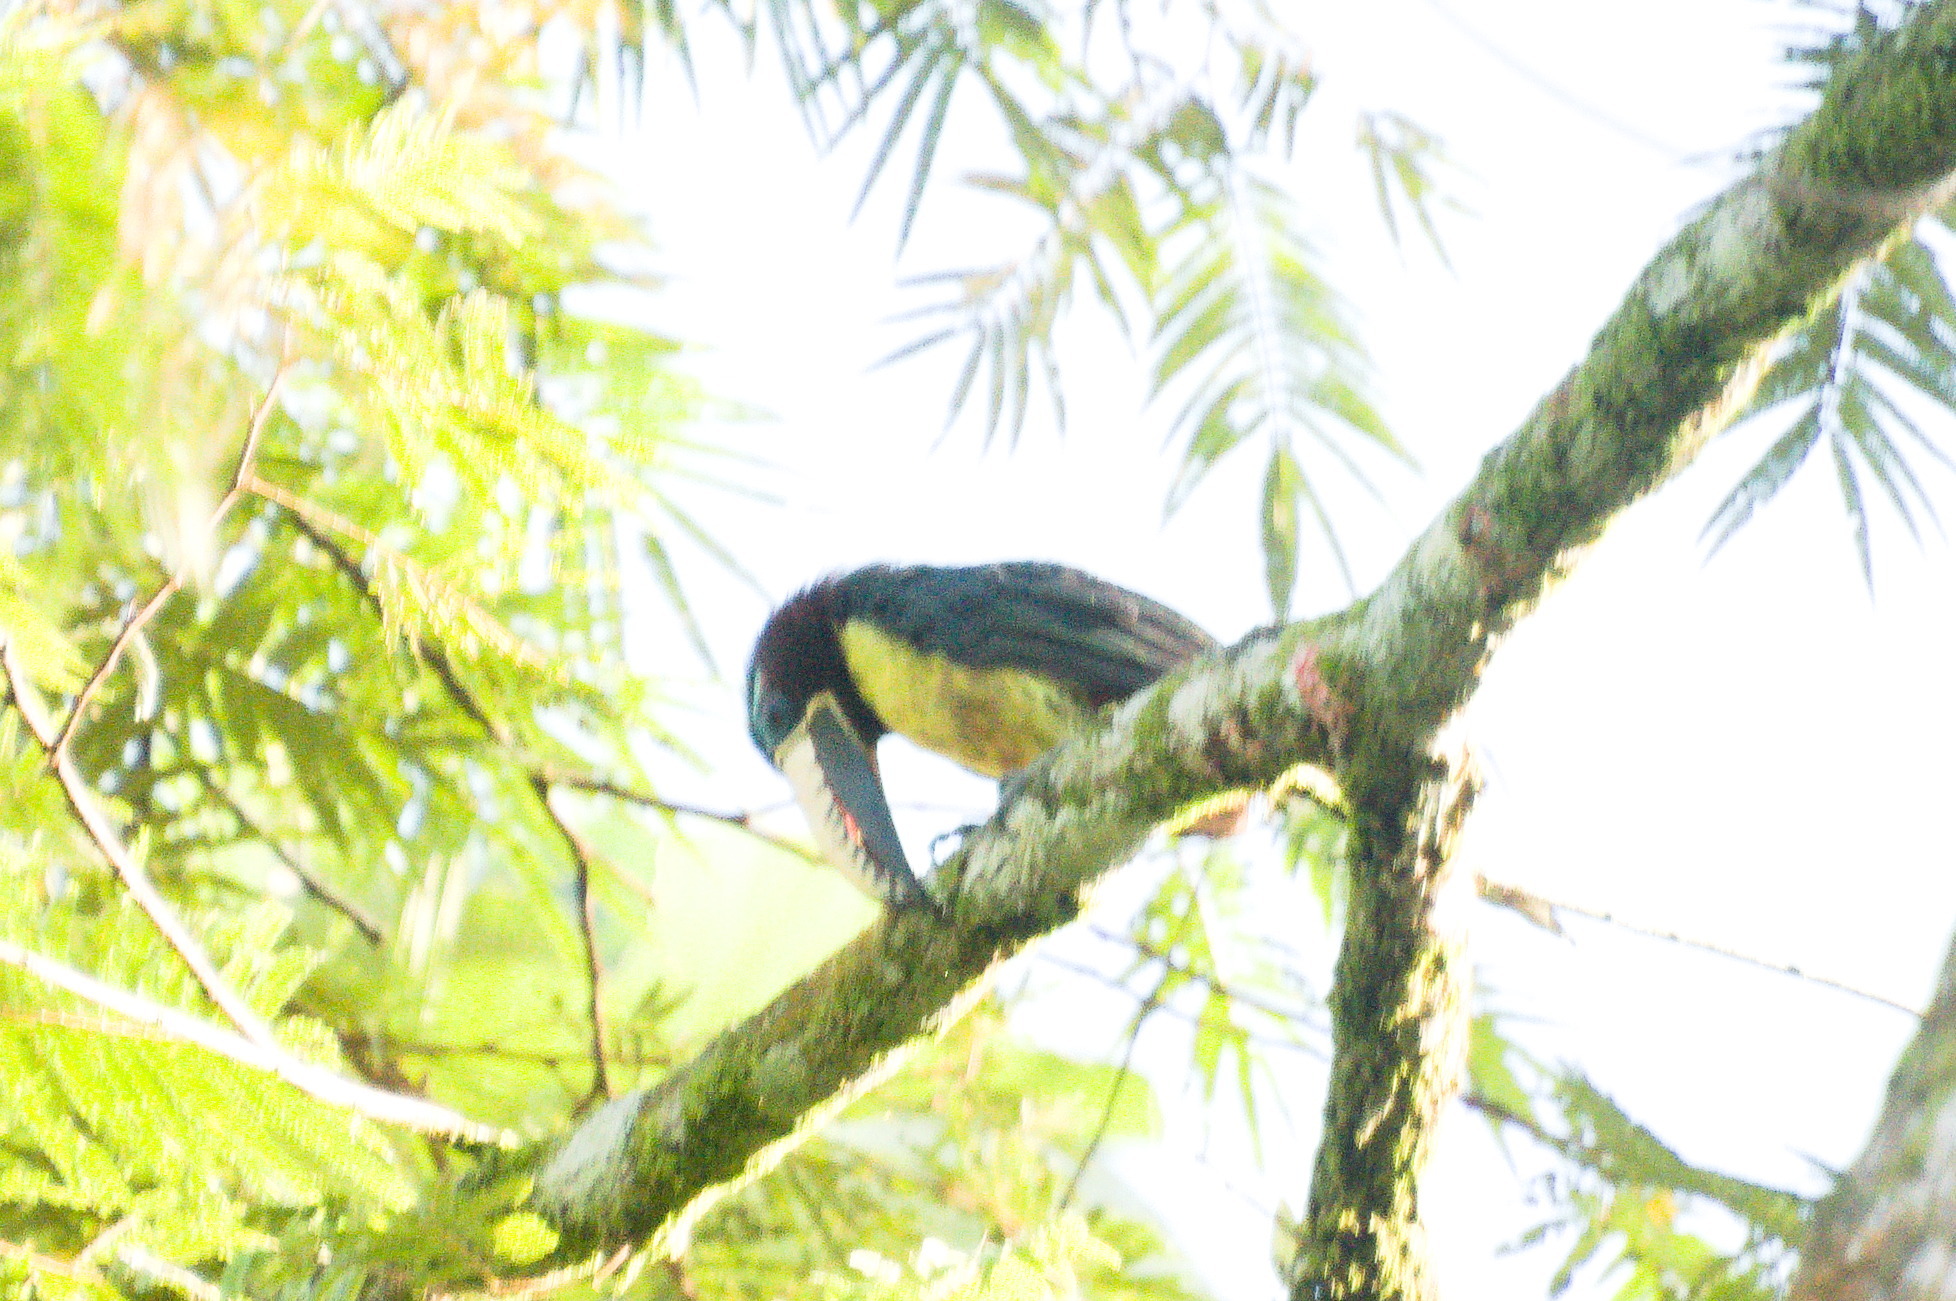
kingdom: Animalia
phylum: Chordata
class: Aves
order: Piciformes
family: Ramphastidae
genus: Pteroglossus
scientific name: Pteroglossus inscriptus
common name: Lettered aracari
